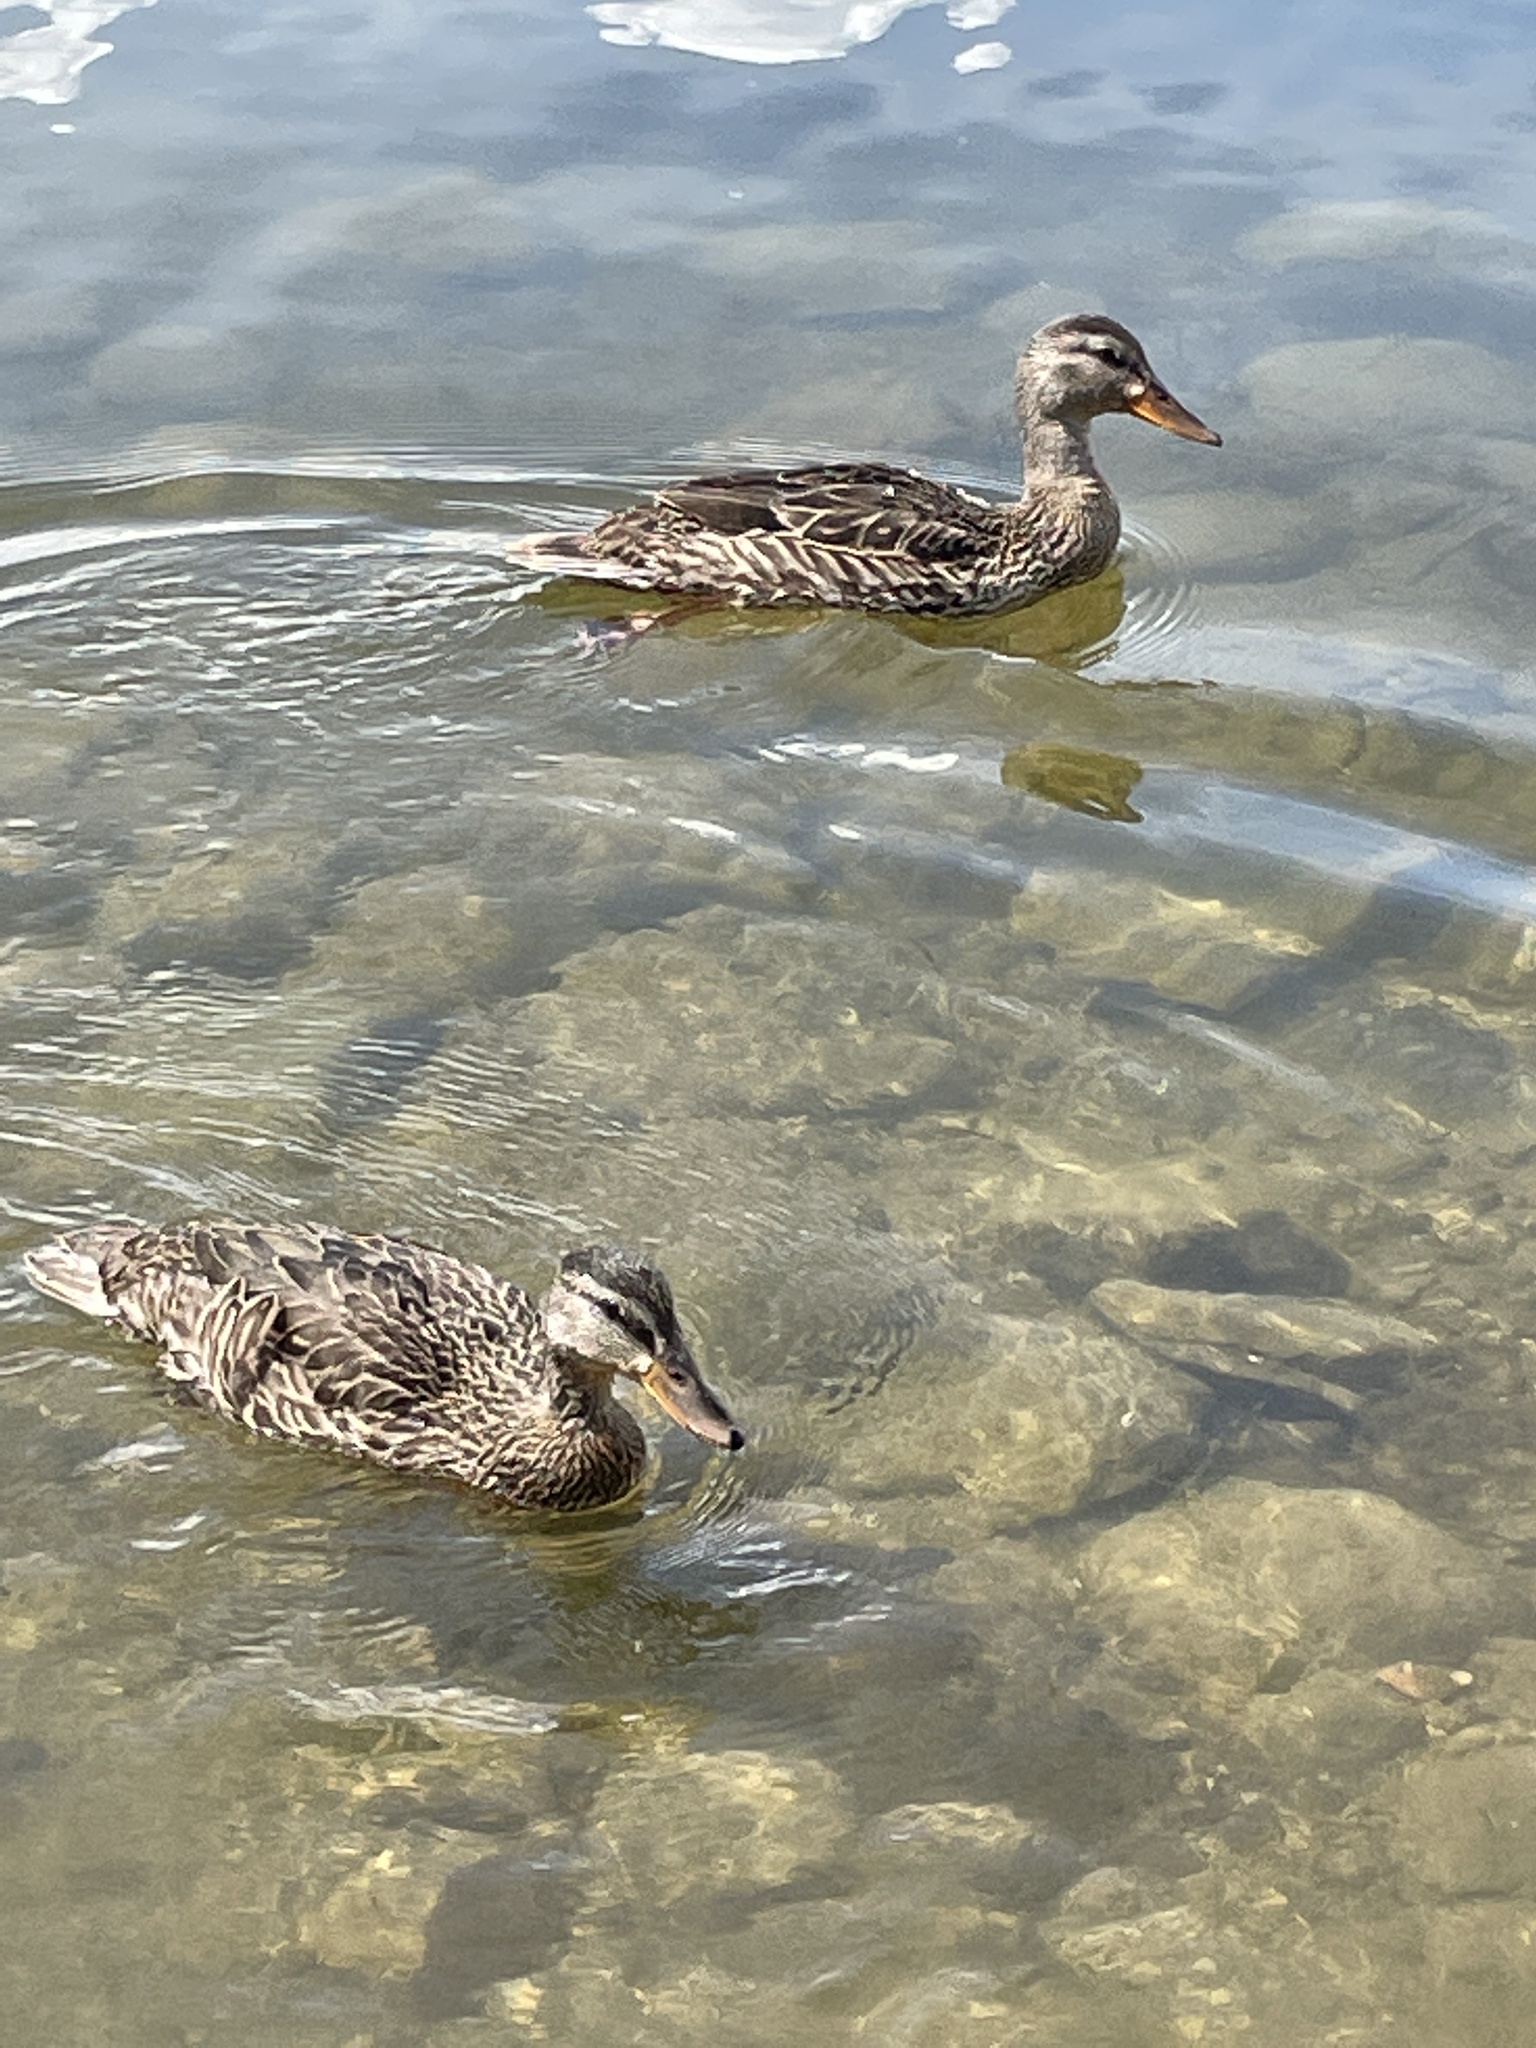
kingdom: Animalia
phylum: Chordata
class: Aves
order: Anseriformes
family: Anatidae
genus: Anas
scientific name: Anas platyrhynchos
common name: Mallard
